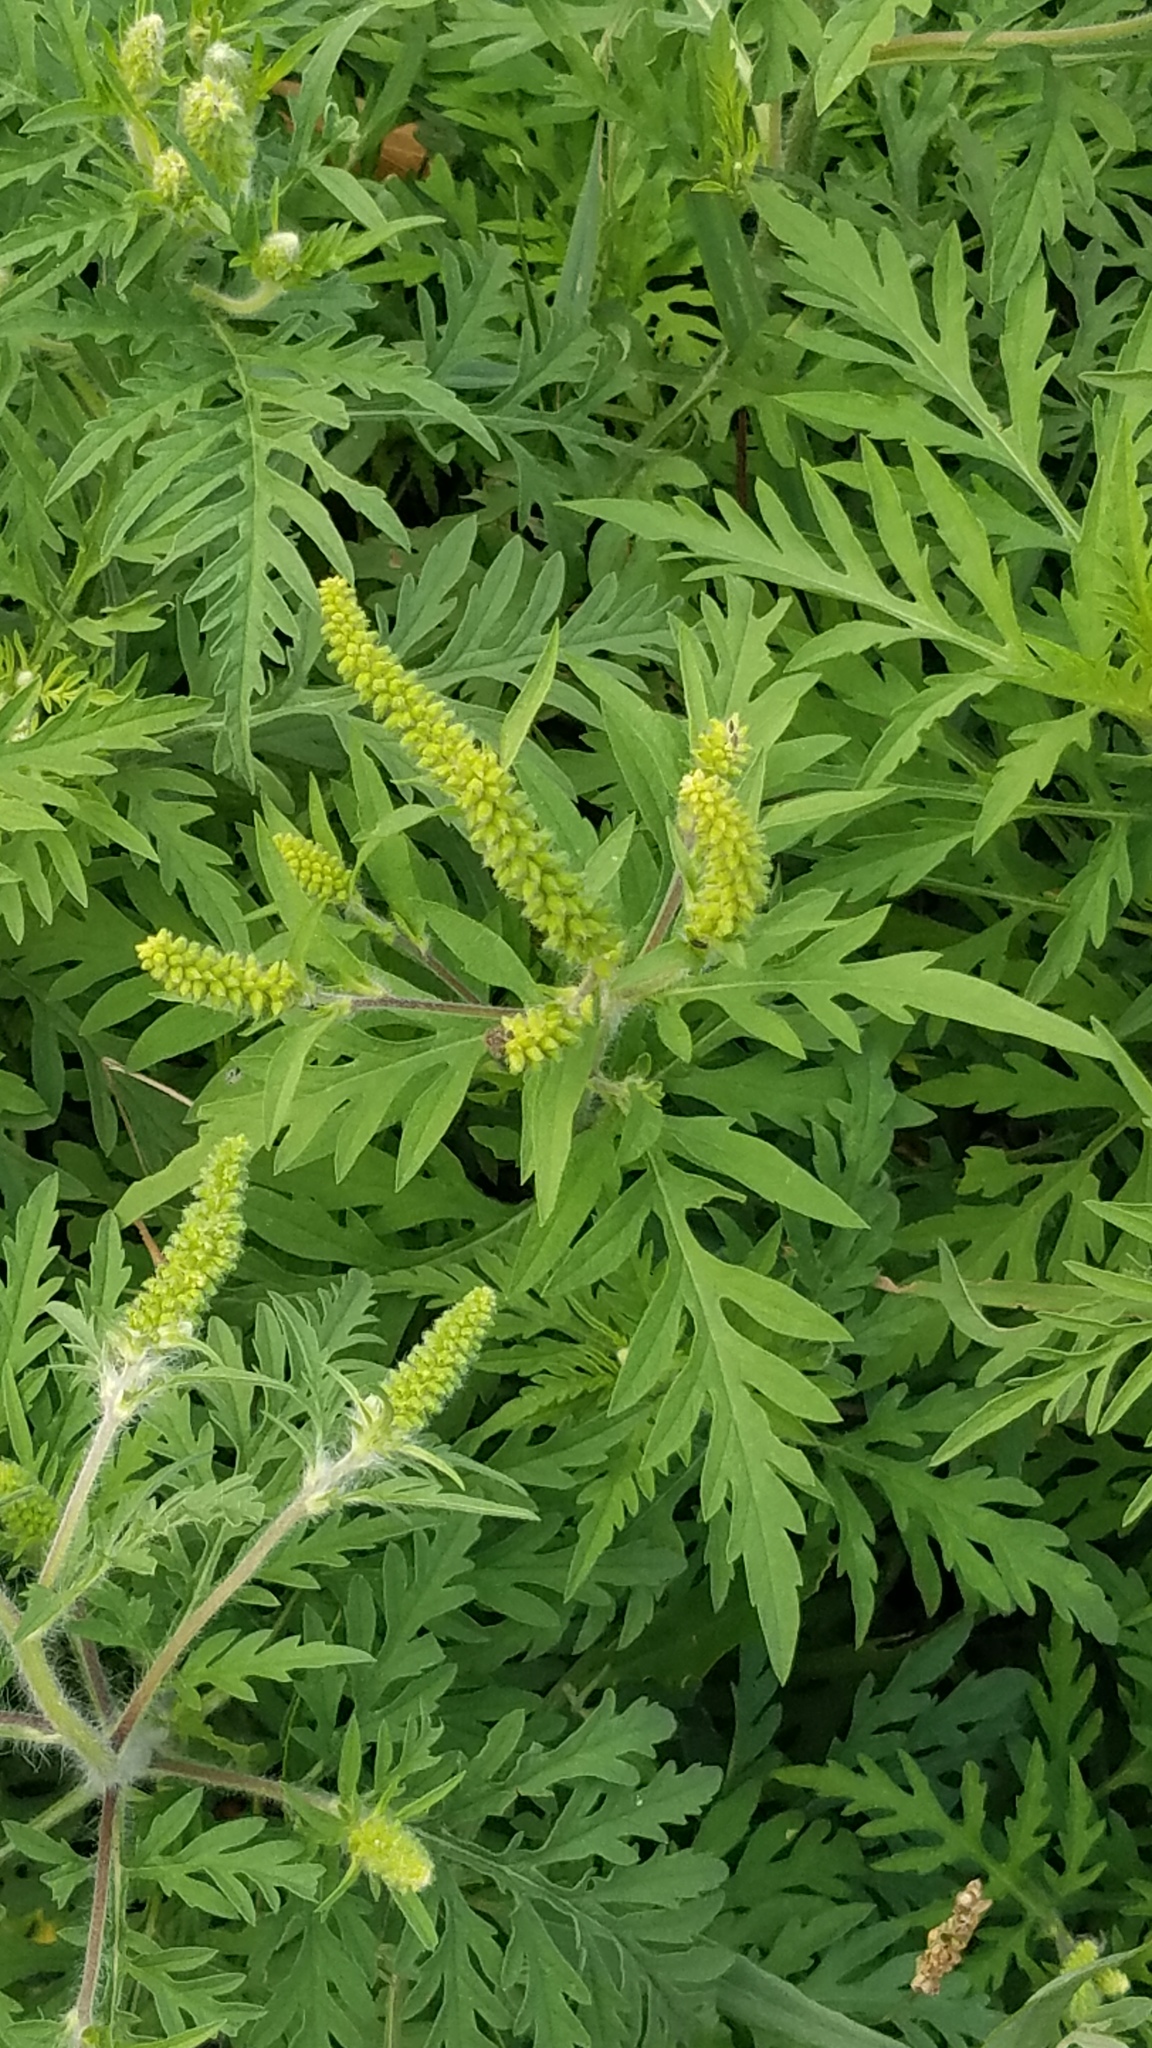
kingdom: Plantae
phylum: Tracheophyta
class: Magnoliopsida
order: Asterales
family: Asteraceae
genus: Ambrosia
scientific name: Ambrosia artemisiifolia
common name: Annual ragweed
